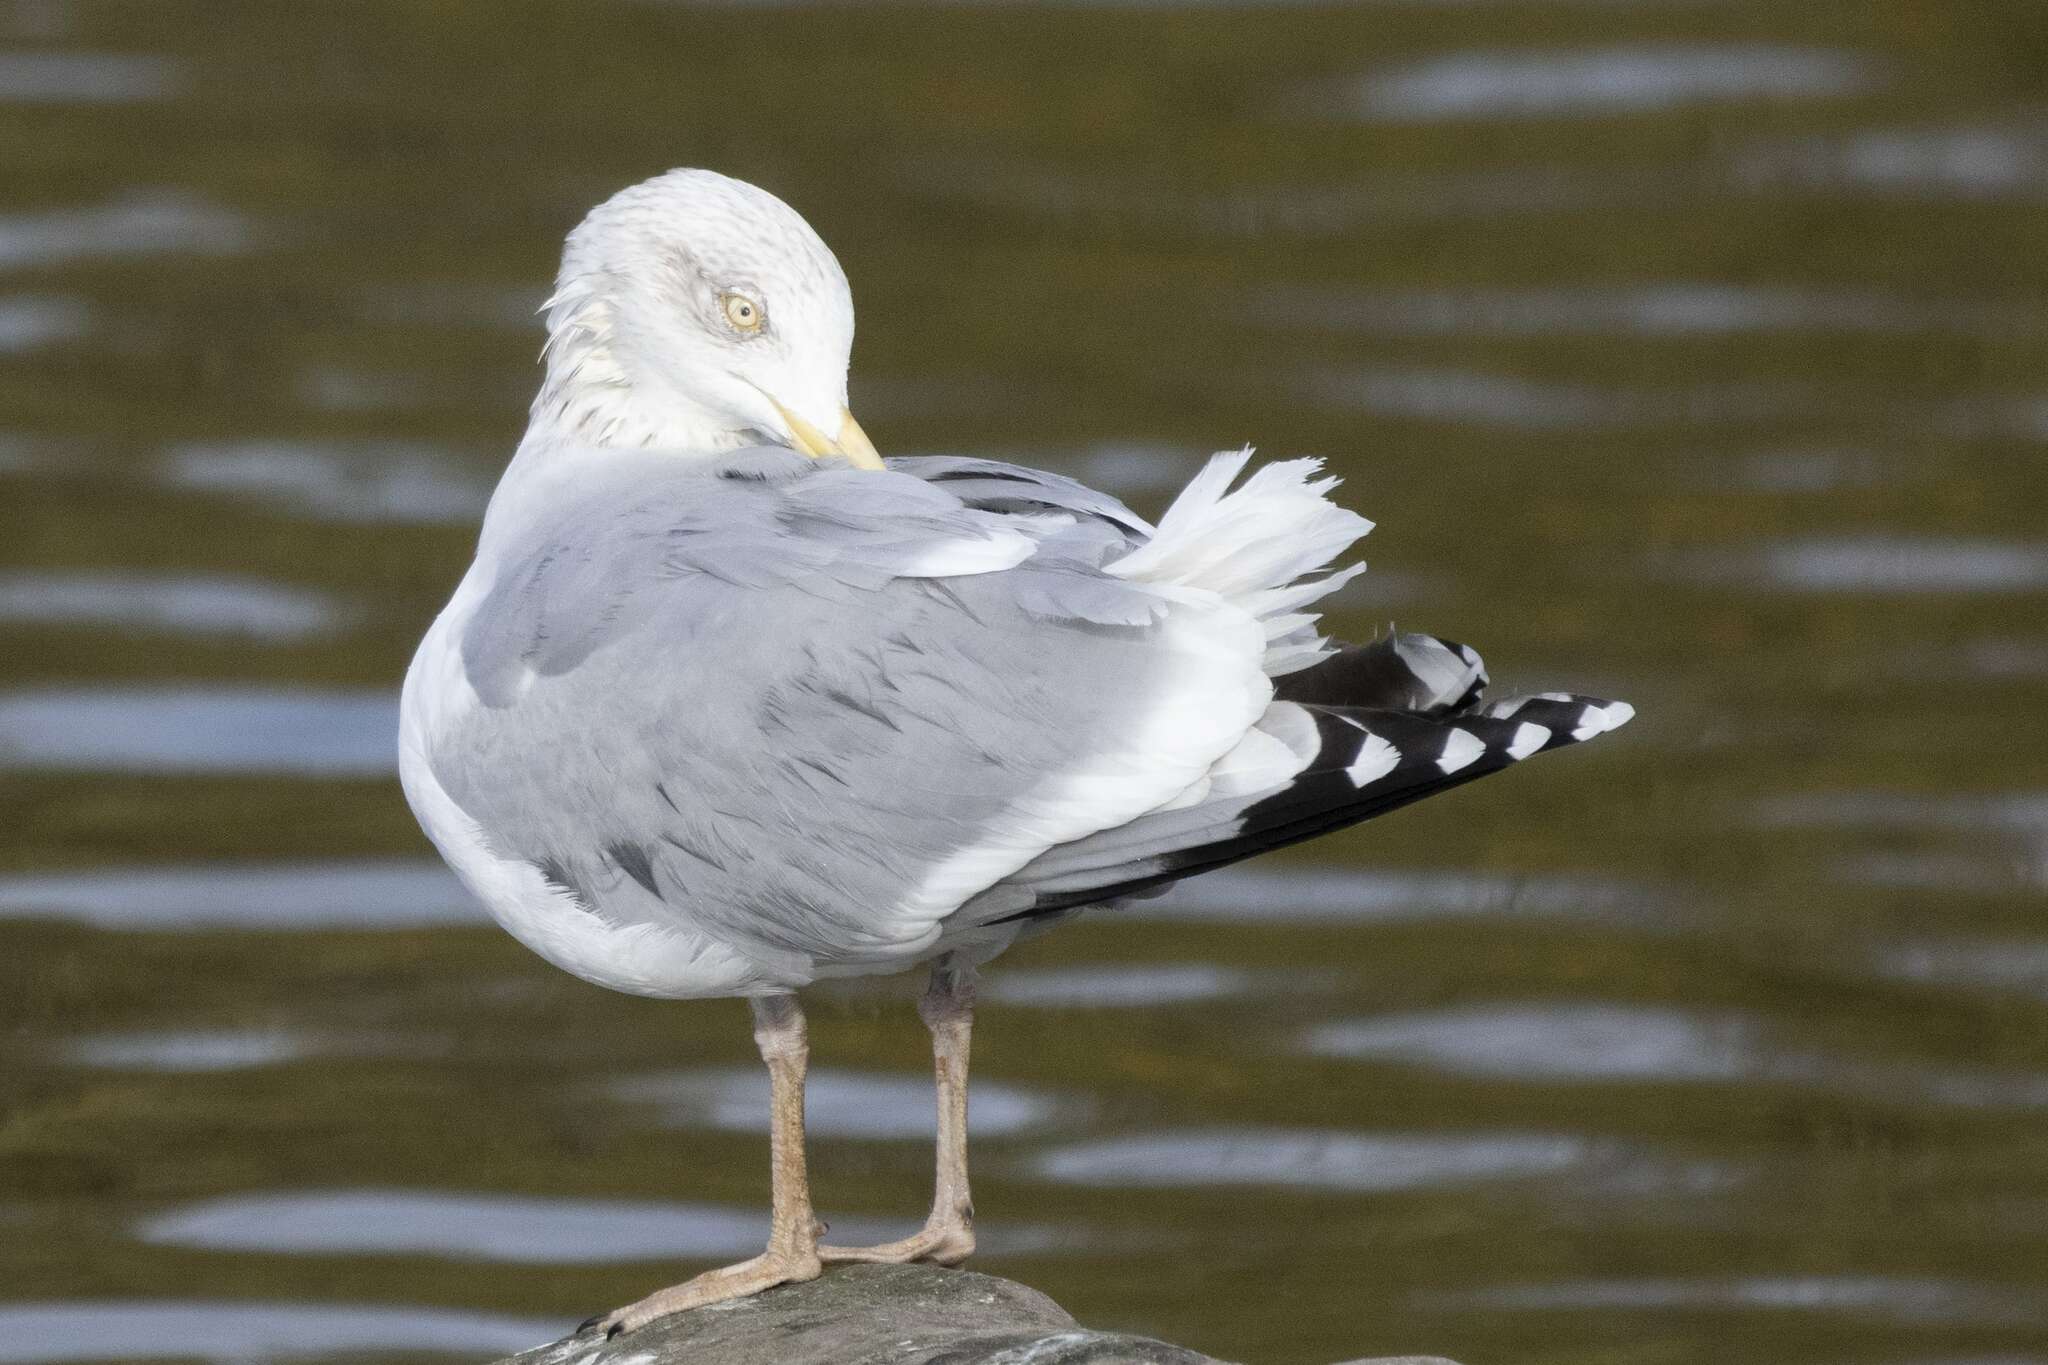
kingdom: Animalia
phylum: Chordata
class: Aves
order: Charadriiformes
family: Laridae
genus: Larus
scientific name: Larus argentatus
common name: Herring gull
